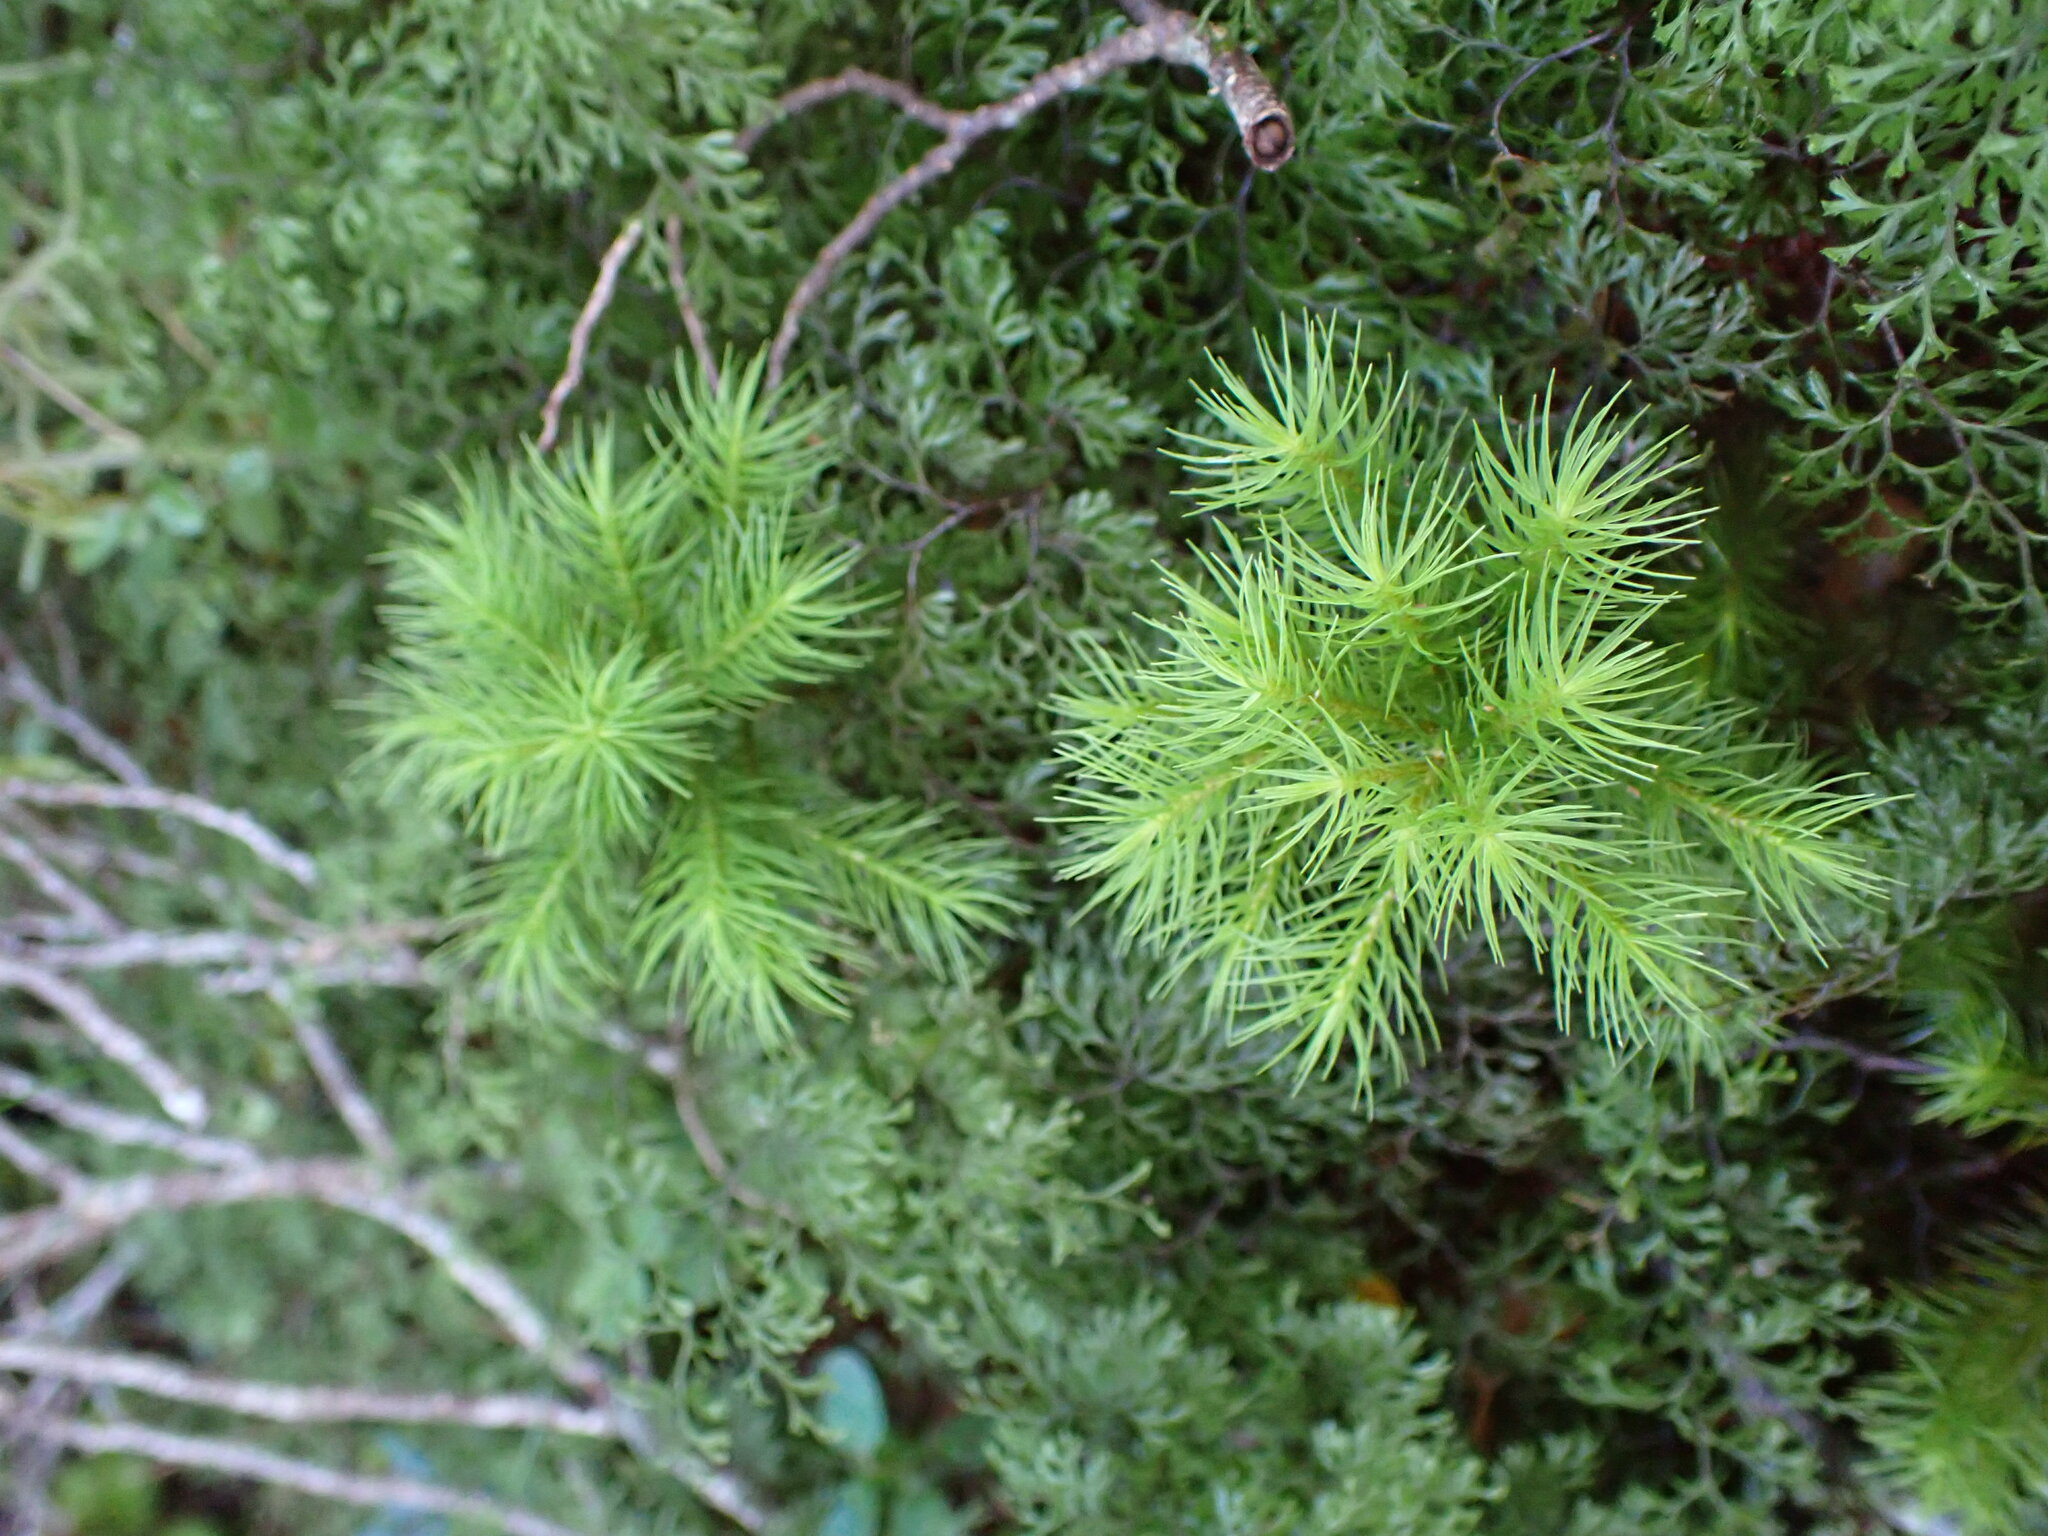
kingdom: Plantae
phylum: Bryophyta
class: Polytrichopsida
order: Polytrichales
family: Polytrichaceae
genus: Dendroligotrichum
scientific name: Dendroligotrichum tongariroense
